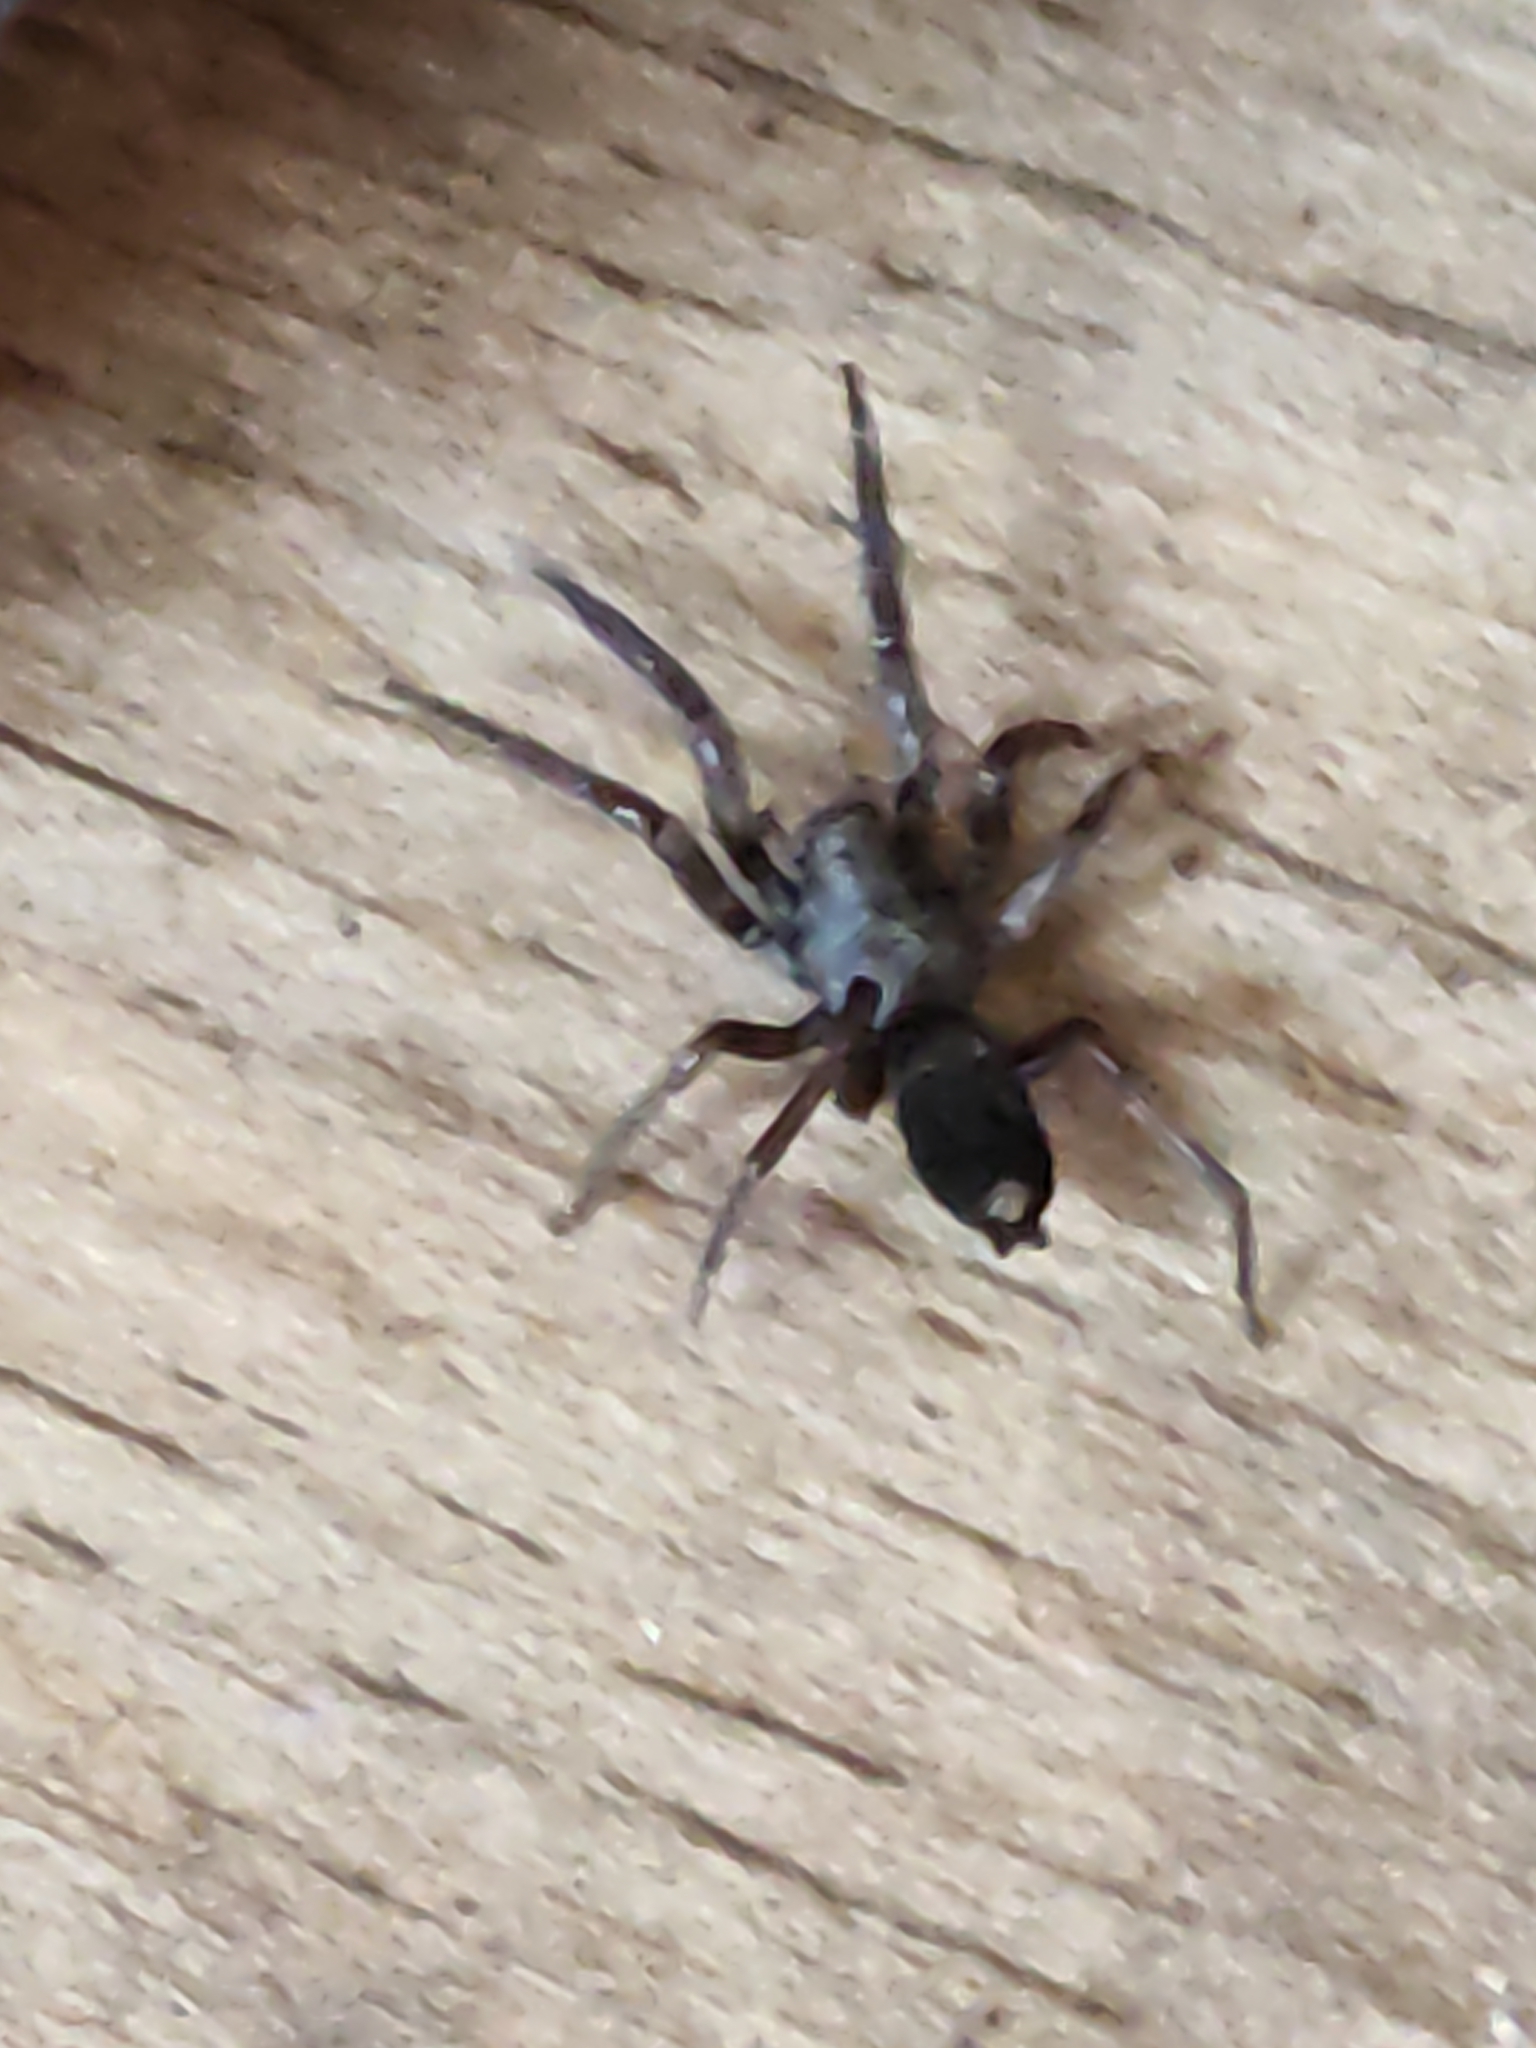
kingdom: Animalia
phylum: Arthropoda
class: Arachnida
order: Araneae
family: Lamponidae
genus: Lampona
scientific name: Lampona cylindrata
